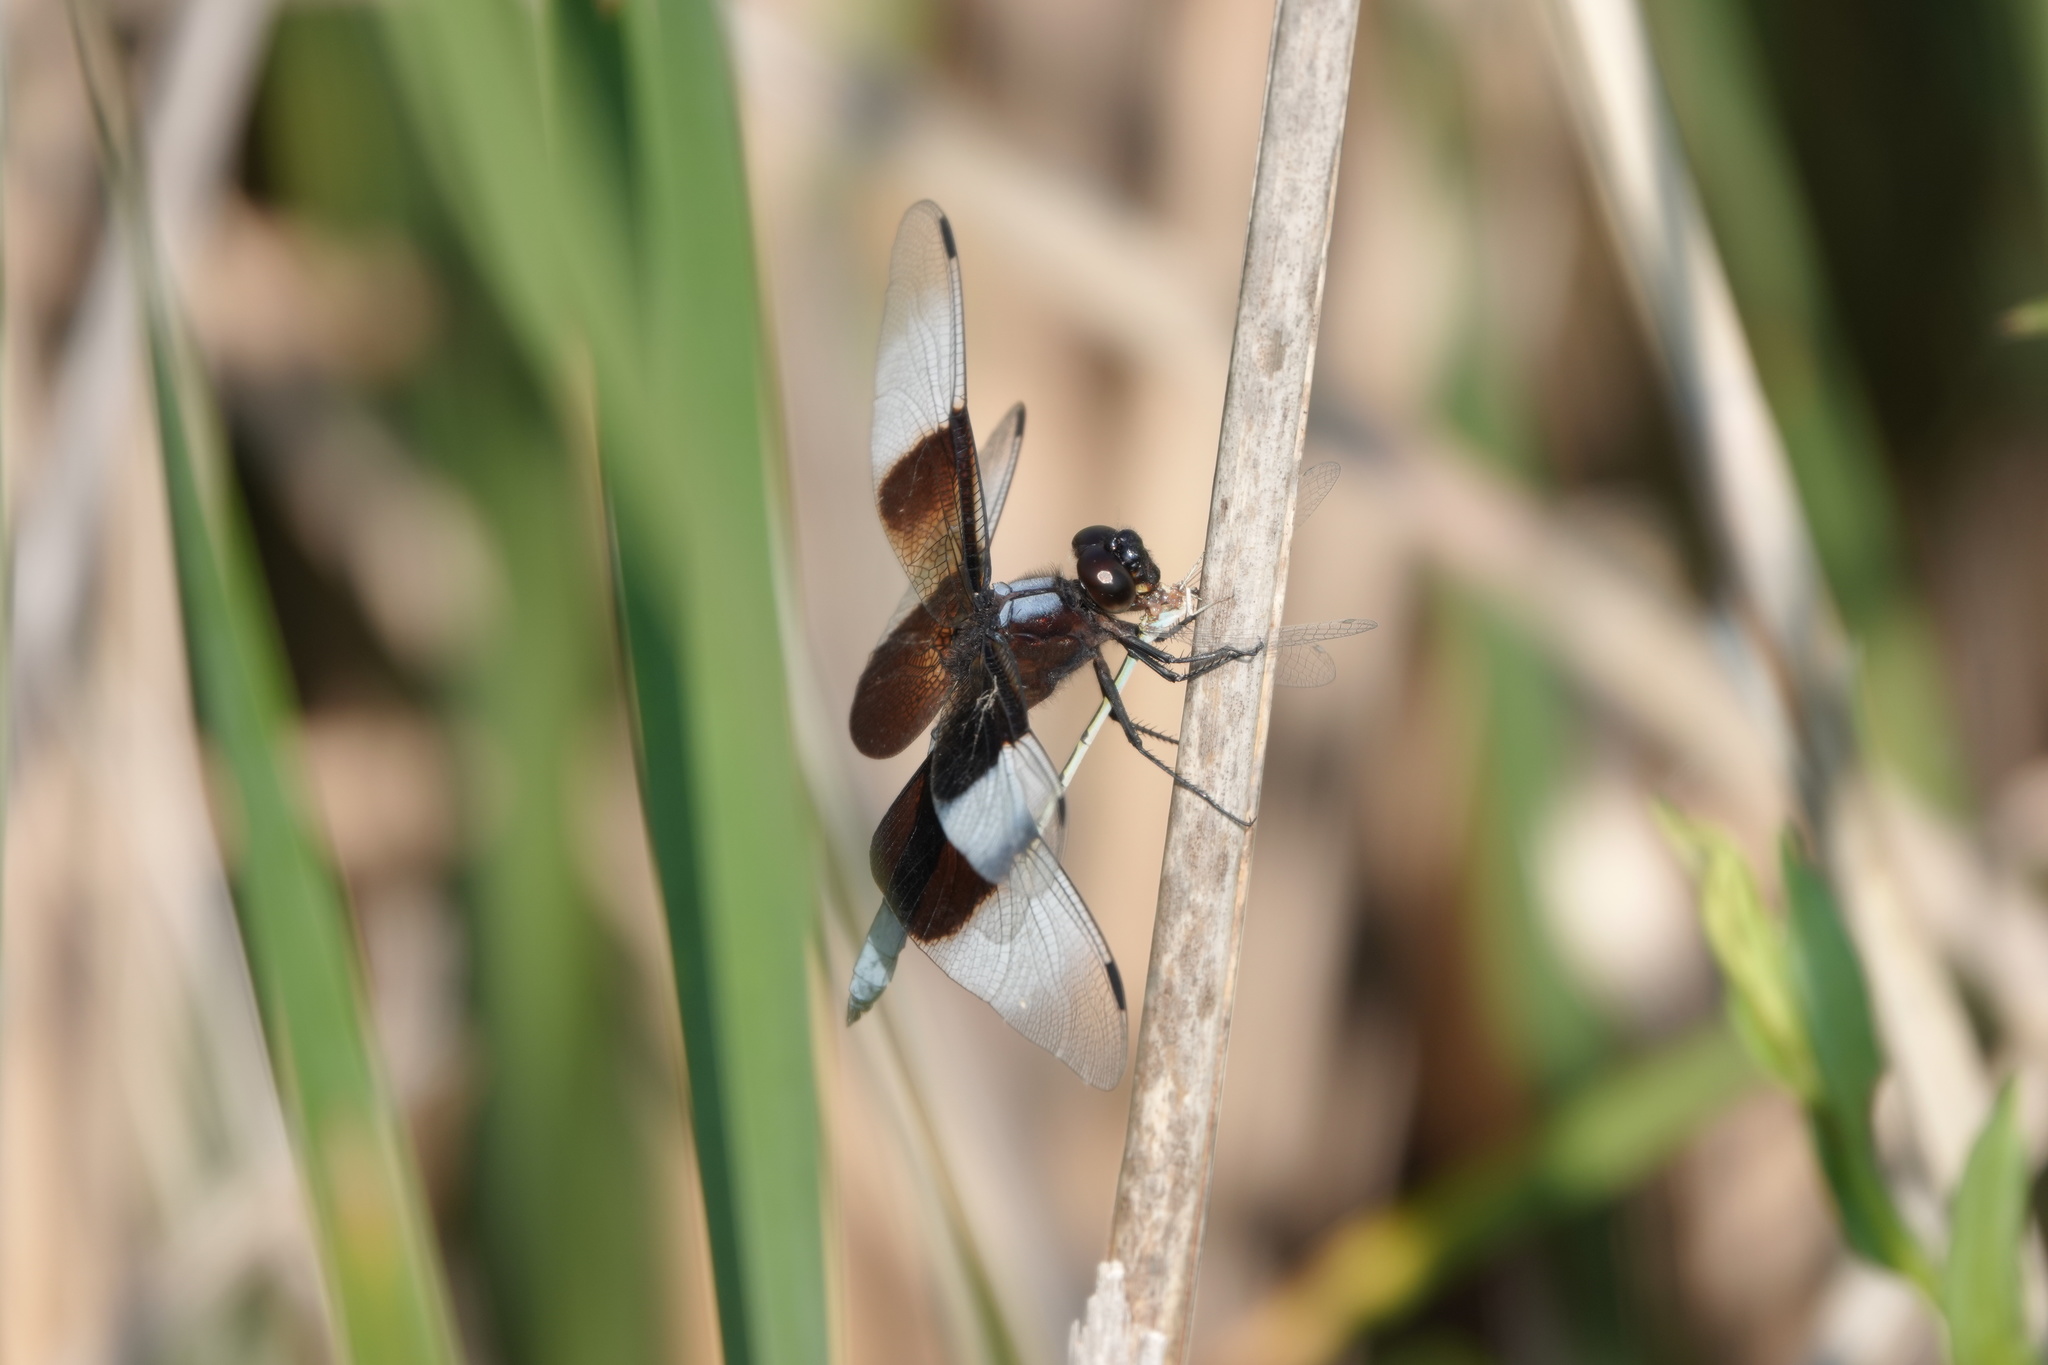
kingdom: Animalia
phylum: Arthropoda
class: Insecta
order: Odonata
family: Libellulidae
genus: Libellula
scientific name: Libellula luctuosa
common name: Widow skimmer
